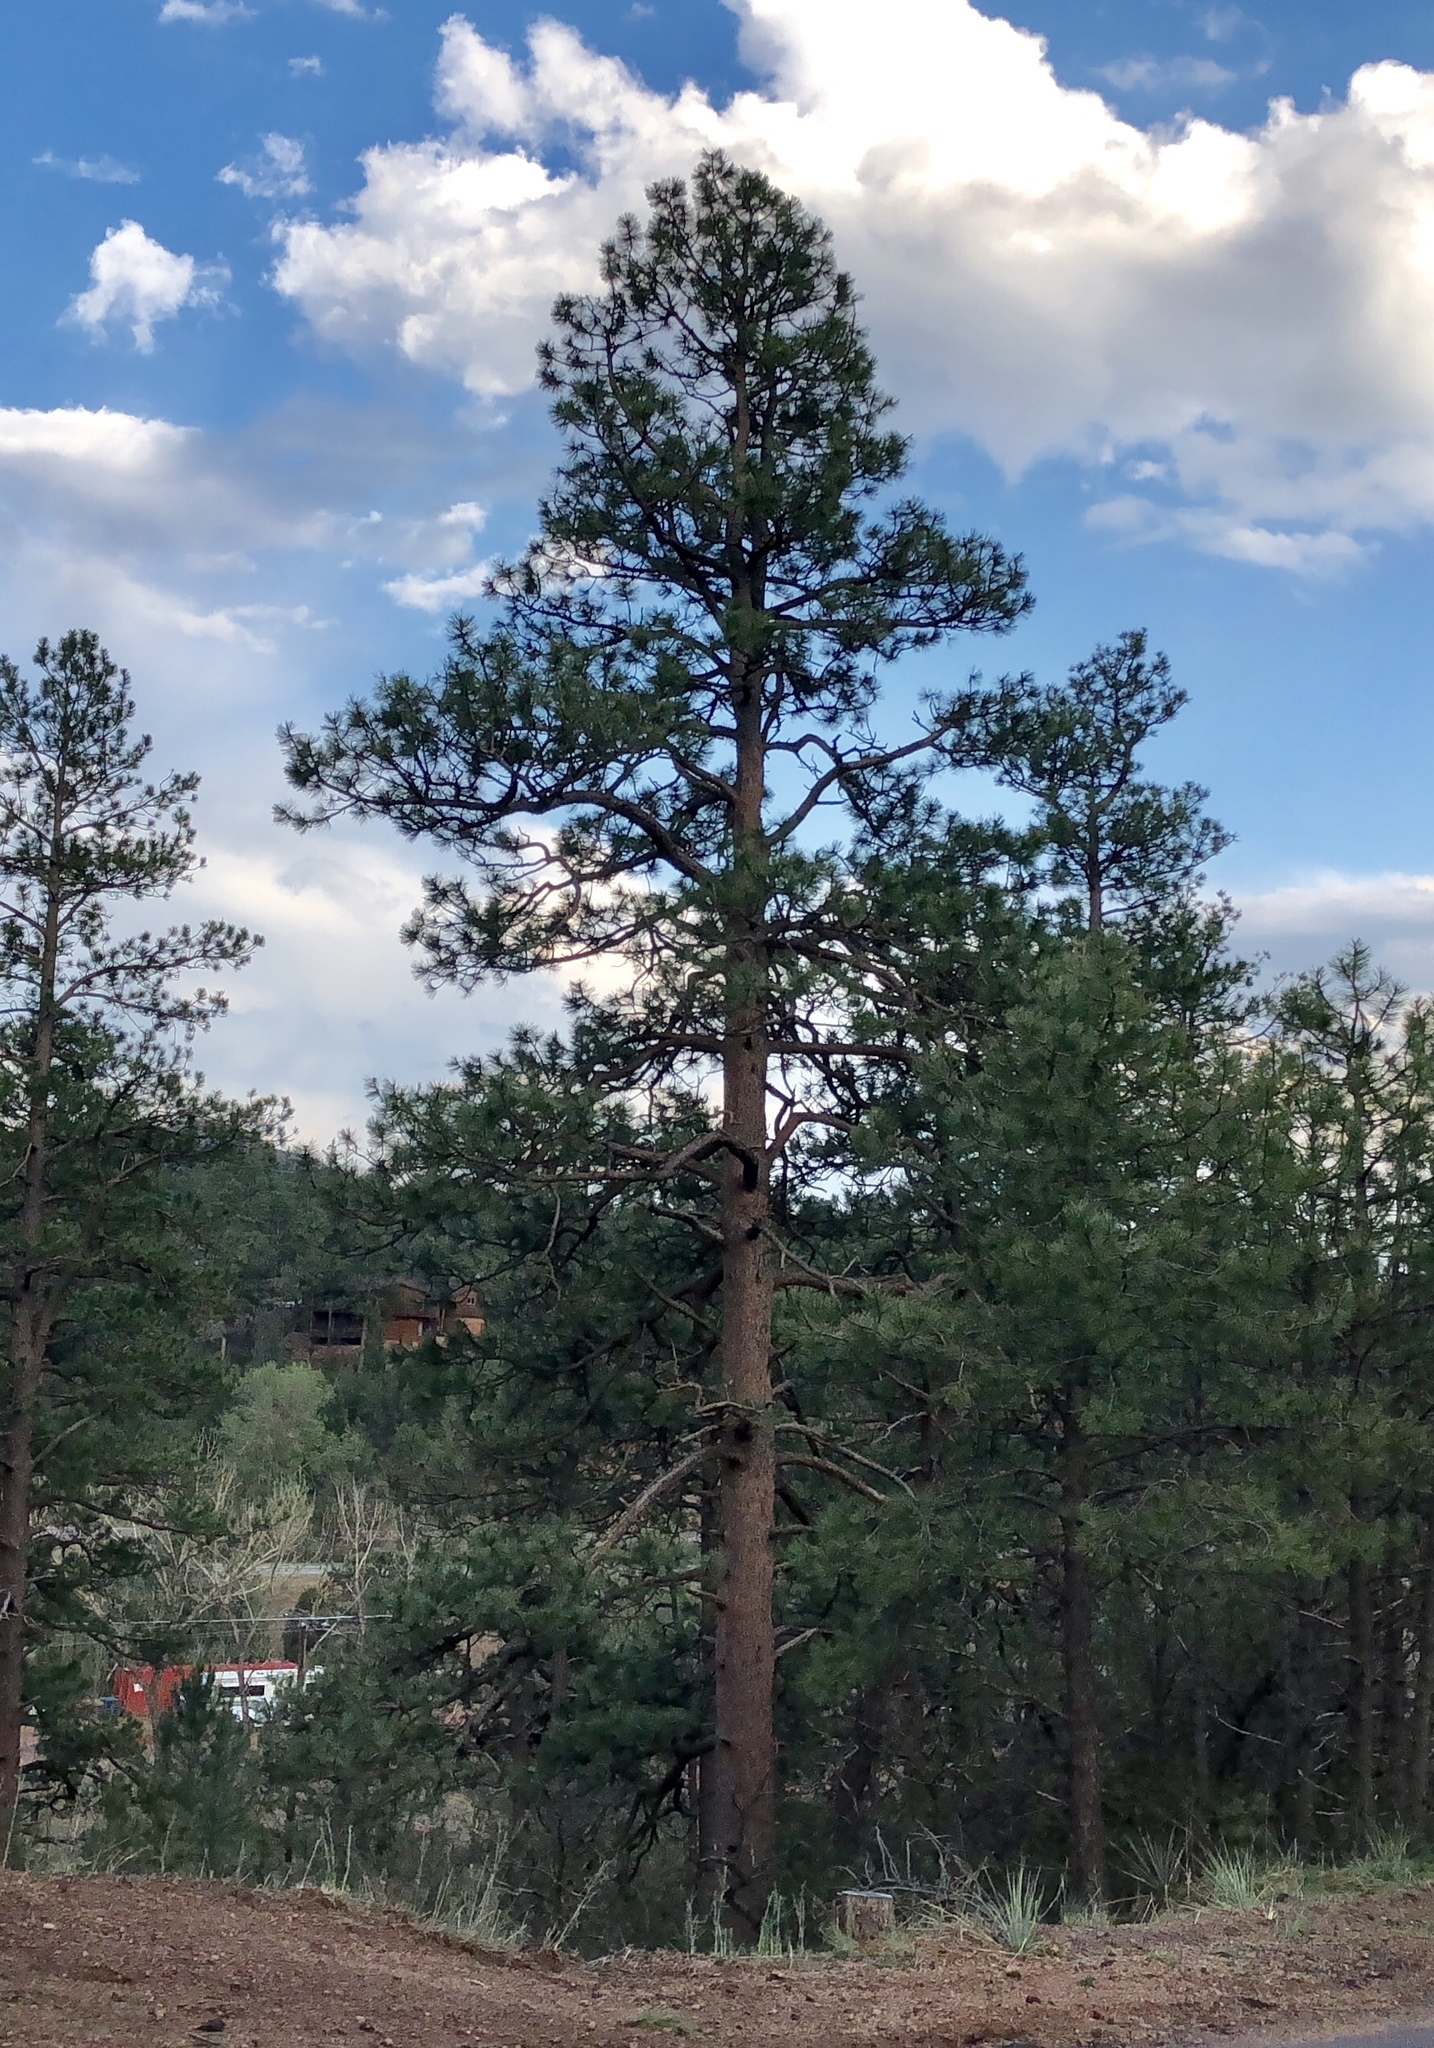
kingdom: Plantae
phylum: Tracheophyta
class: Pinopsida
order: Pinales
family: Pinaceae
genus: Pinus
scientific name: Pinus ponderosa
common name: Western yellow-pine
